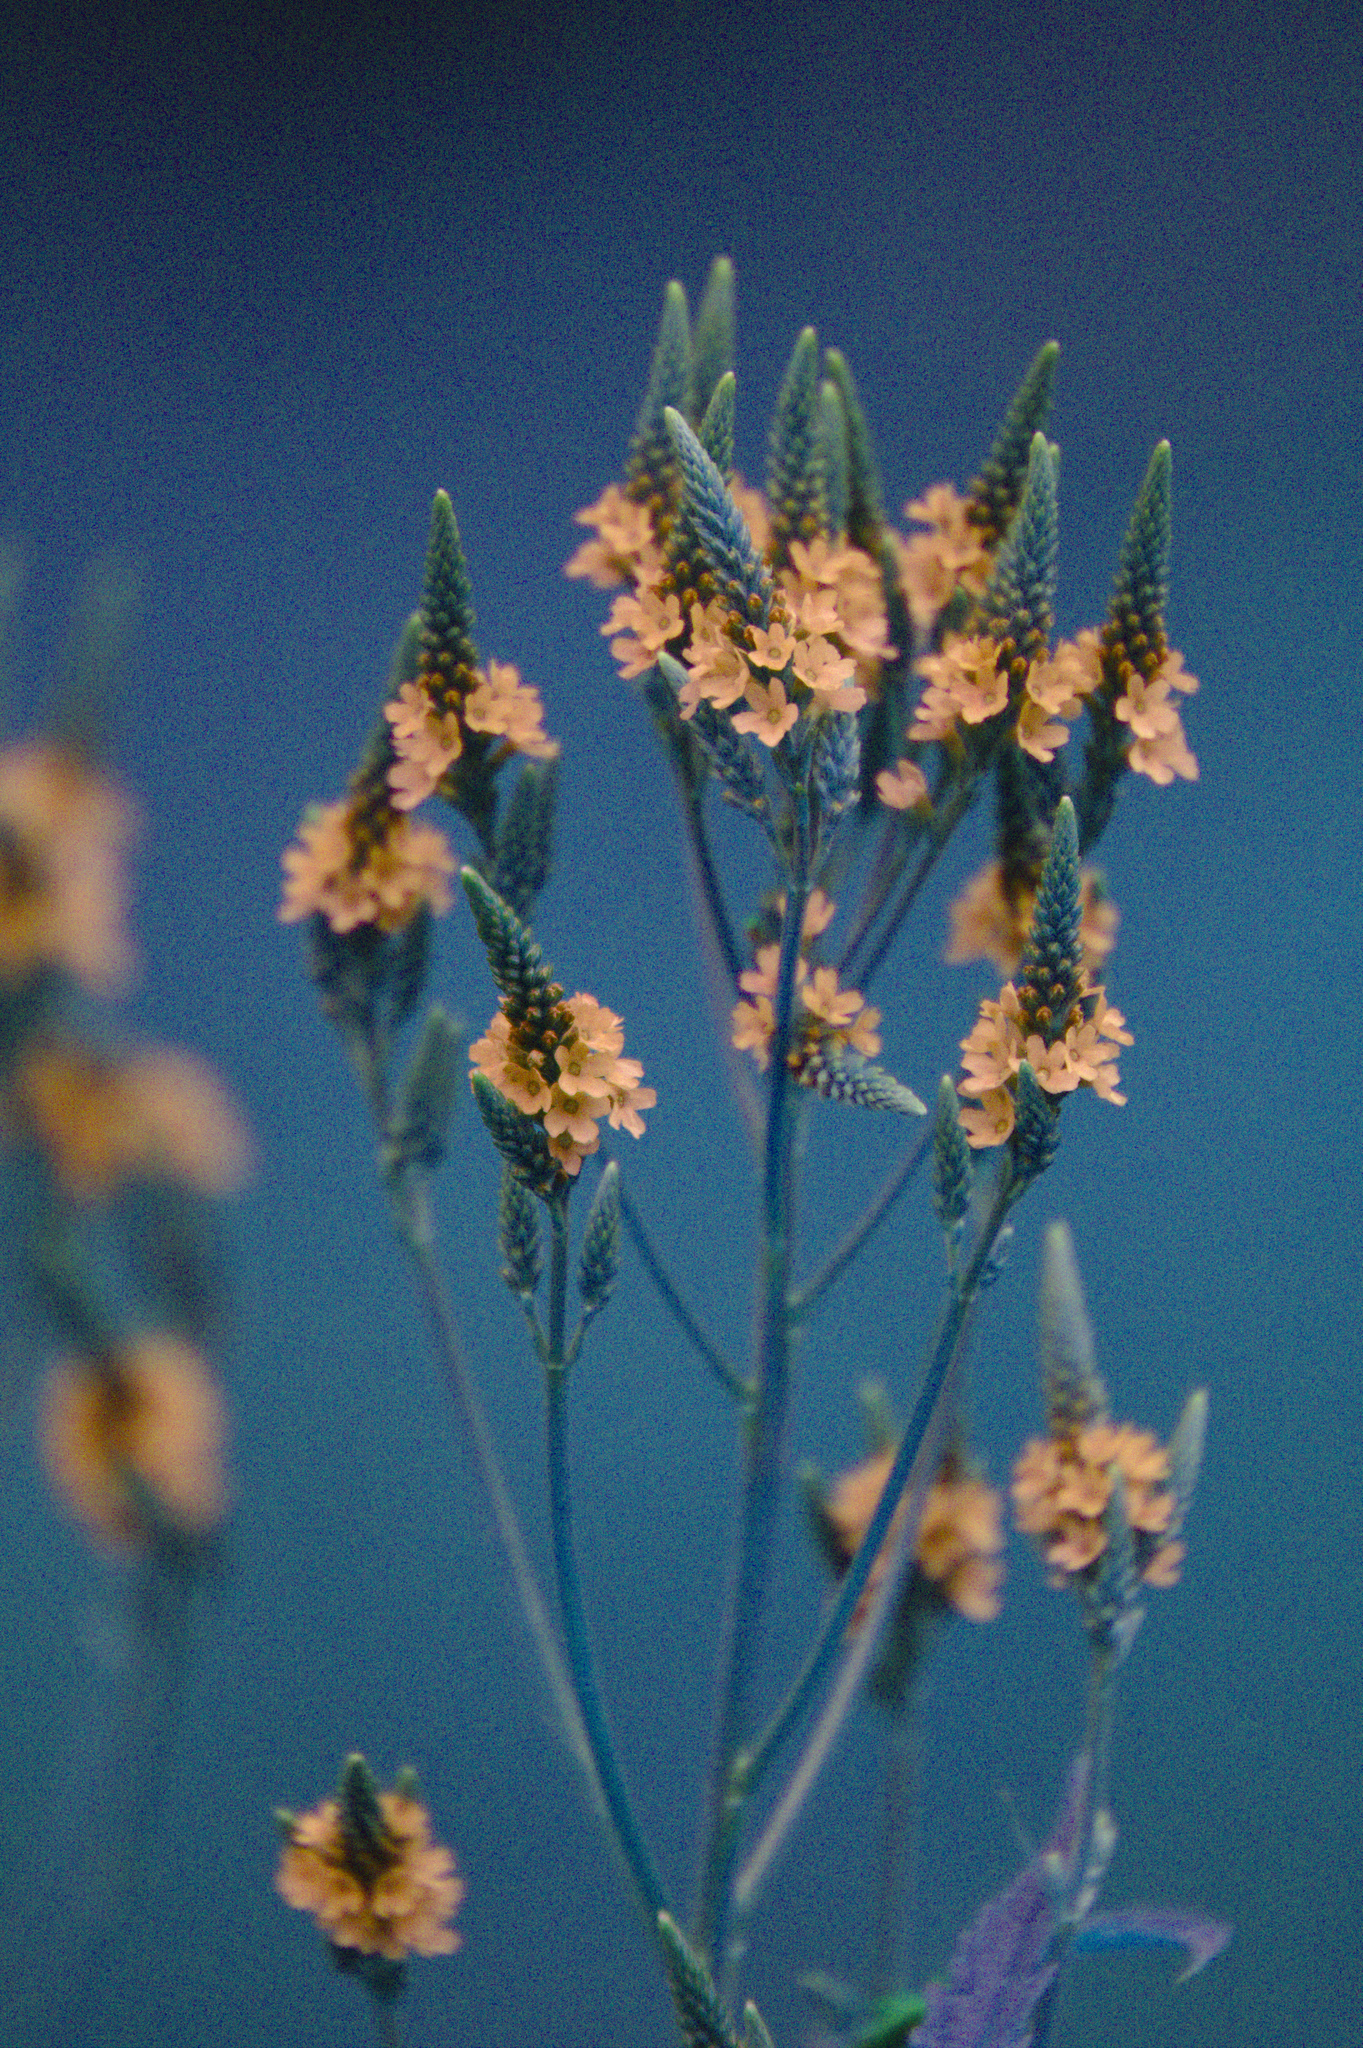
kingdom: Plantae
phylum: Tracheophyta
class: Magnoliopsida
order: Lamiales
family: Verbenaceae
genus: Verbena
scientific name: Verbena hastata
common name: American blue vervain
